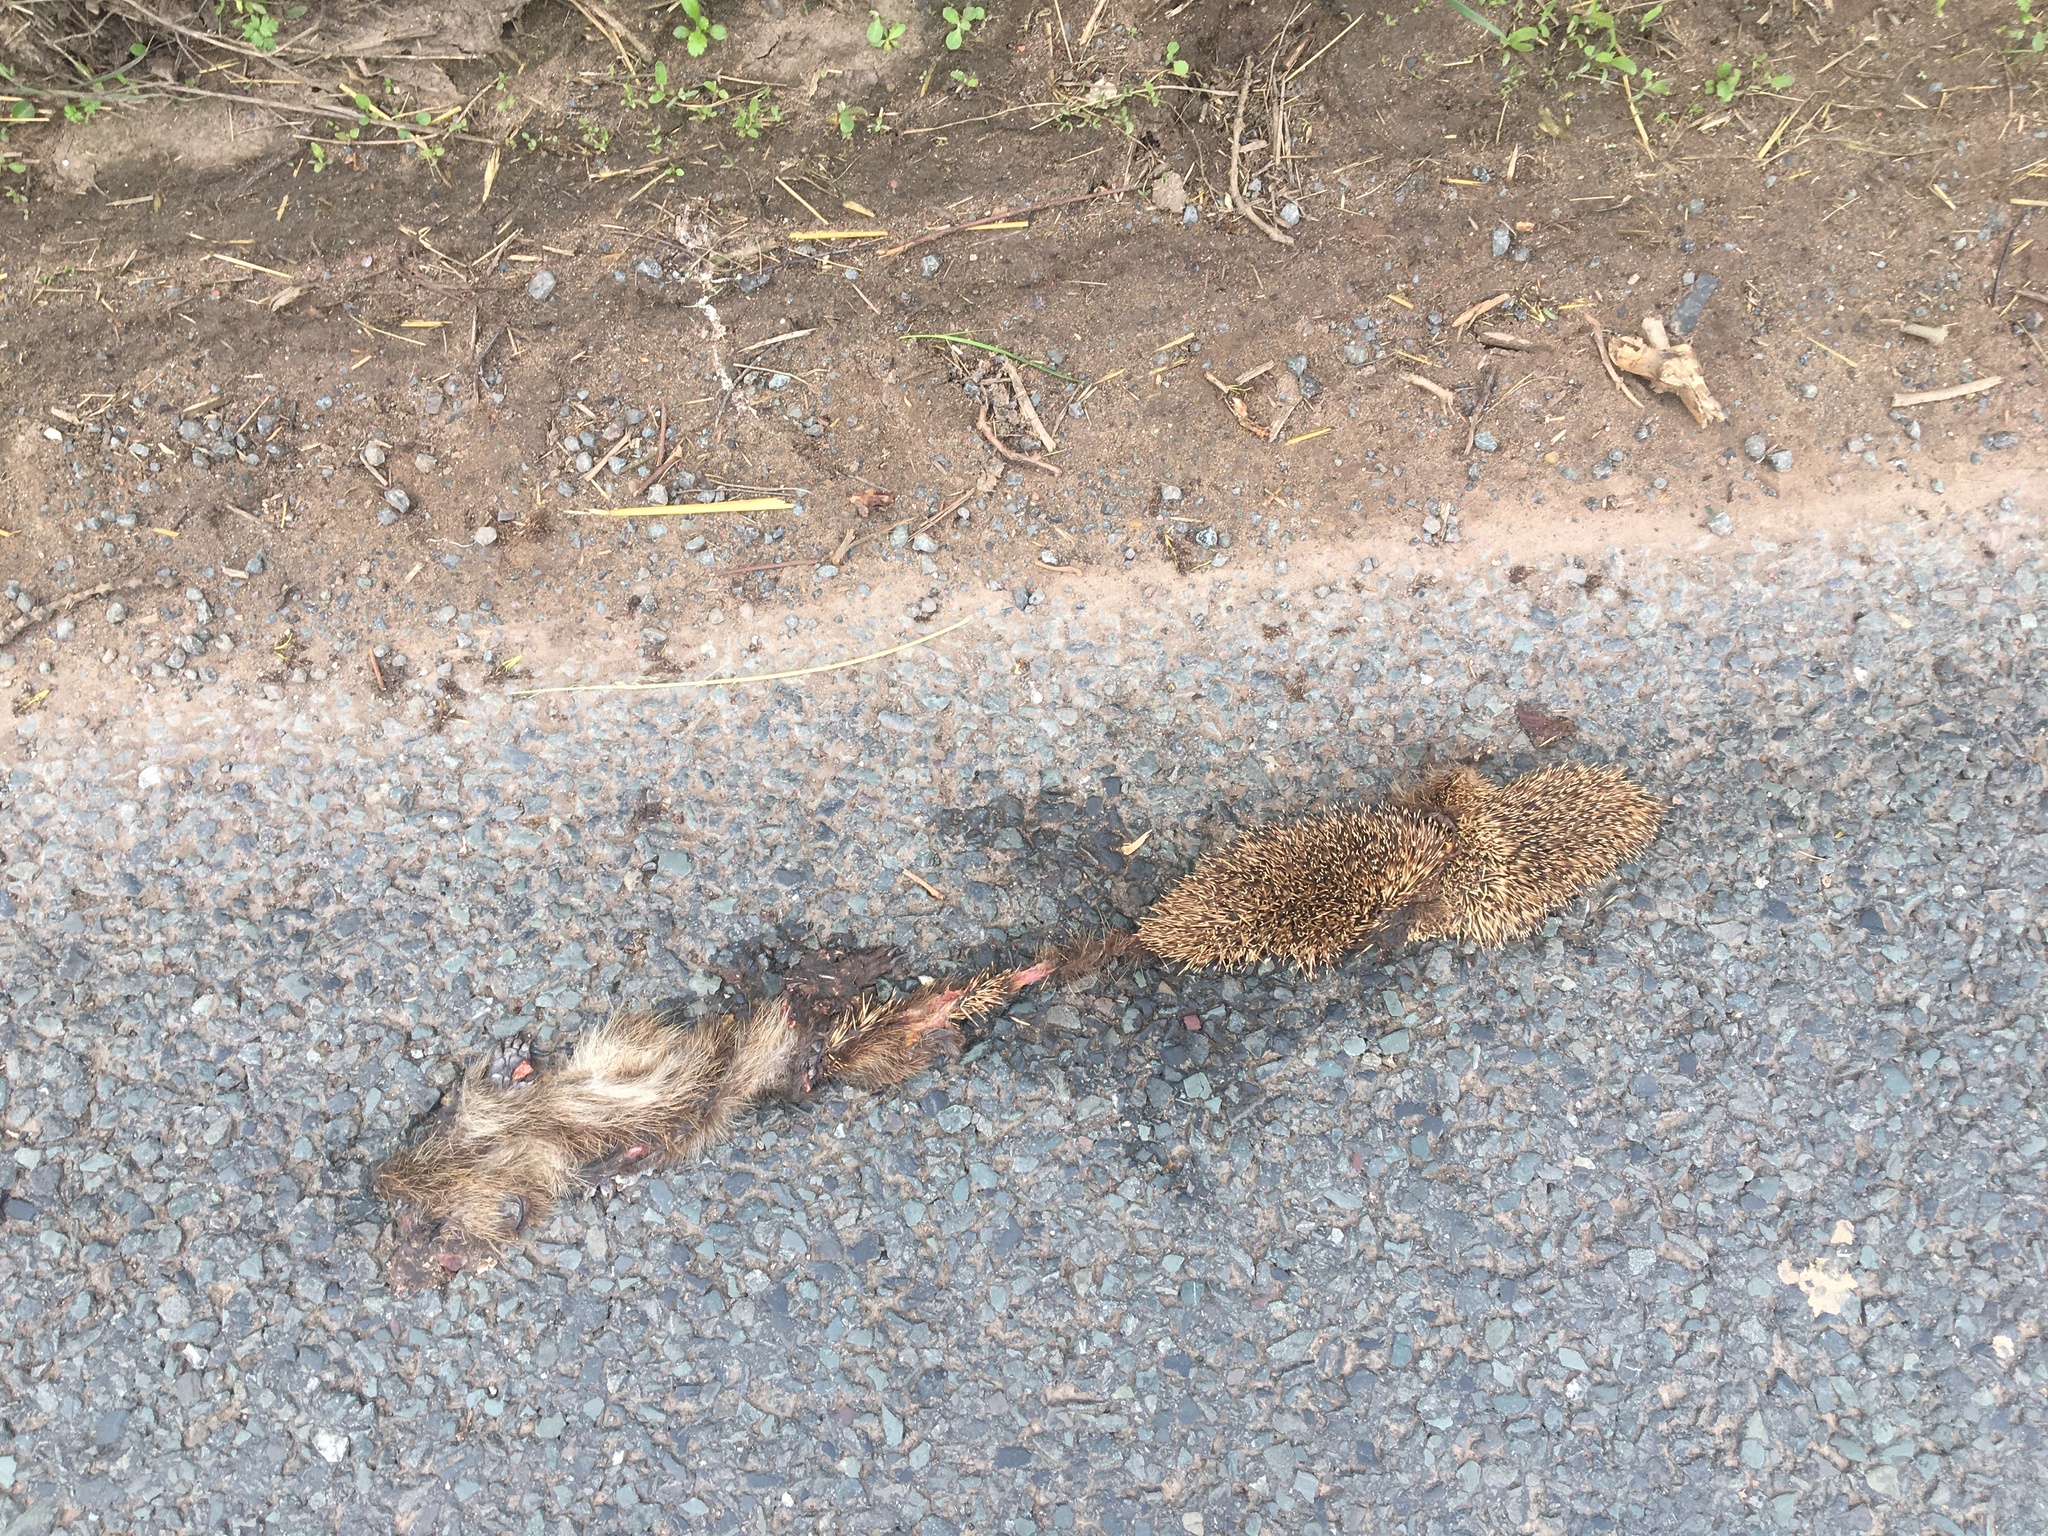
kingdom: Animalia
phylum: Chordata
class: Mammalia
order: Erinaceomorpha
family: Erinaceidae
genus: Erinaceus
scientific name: Erinaceus europaeus
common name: West european hedgehog
